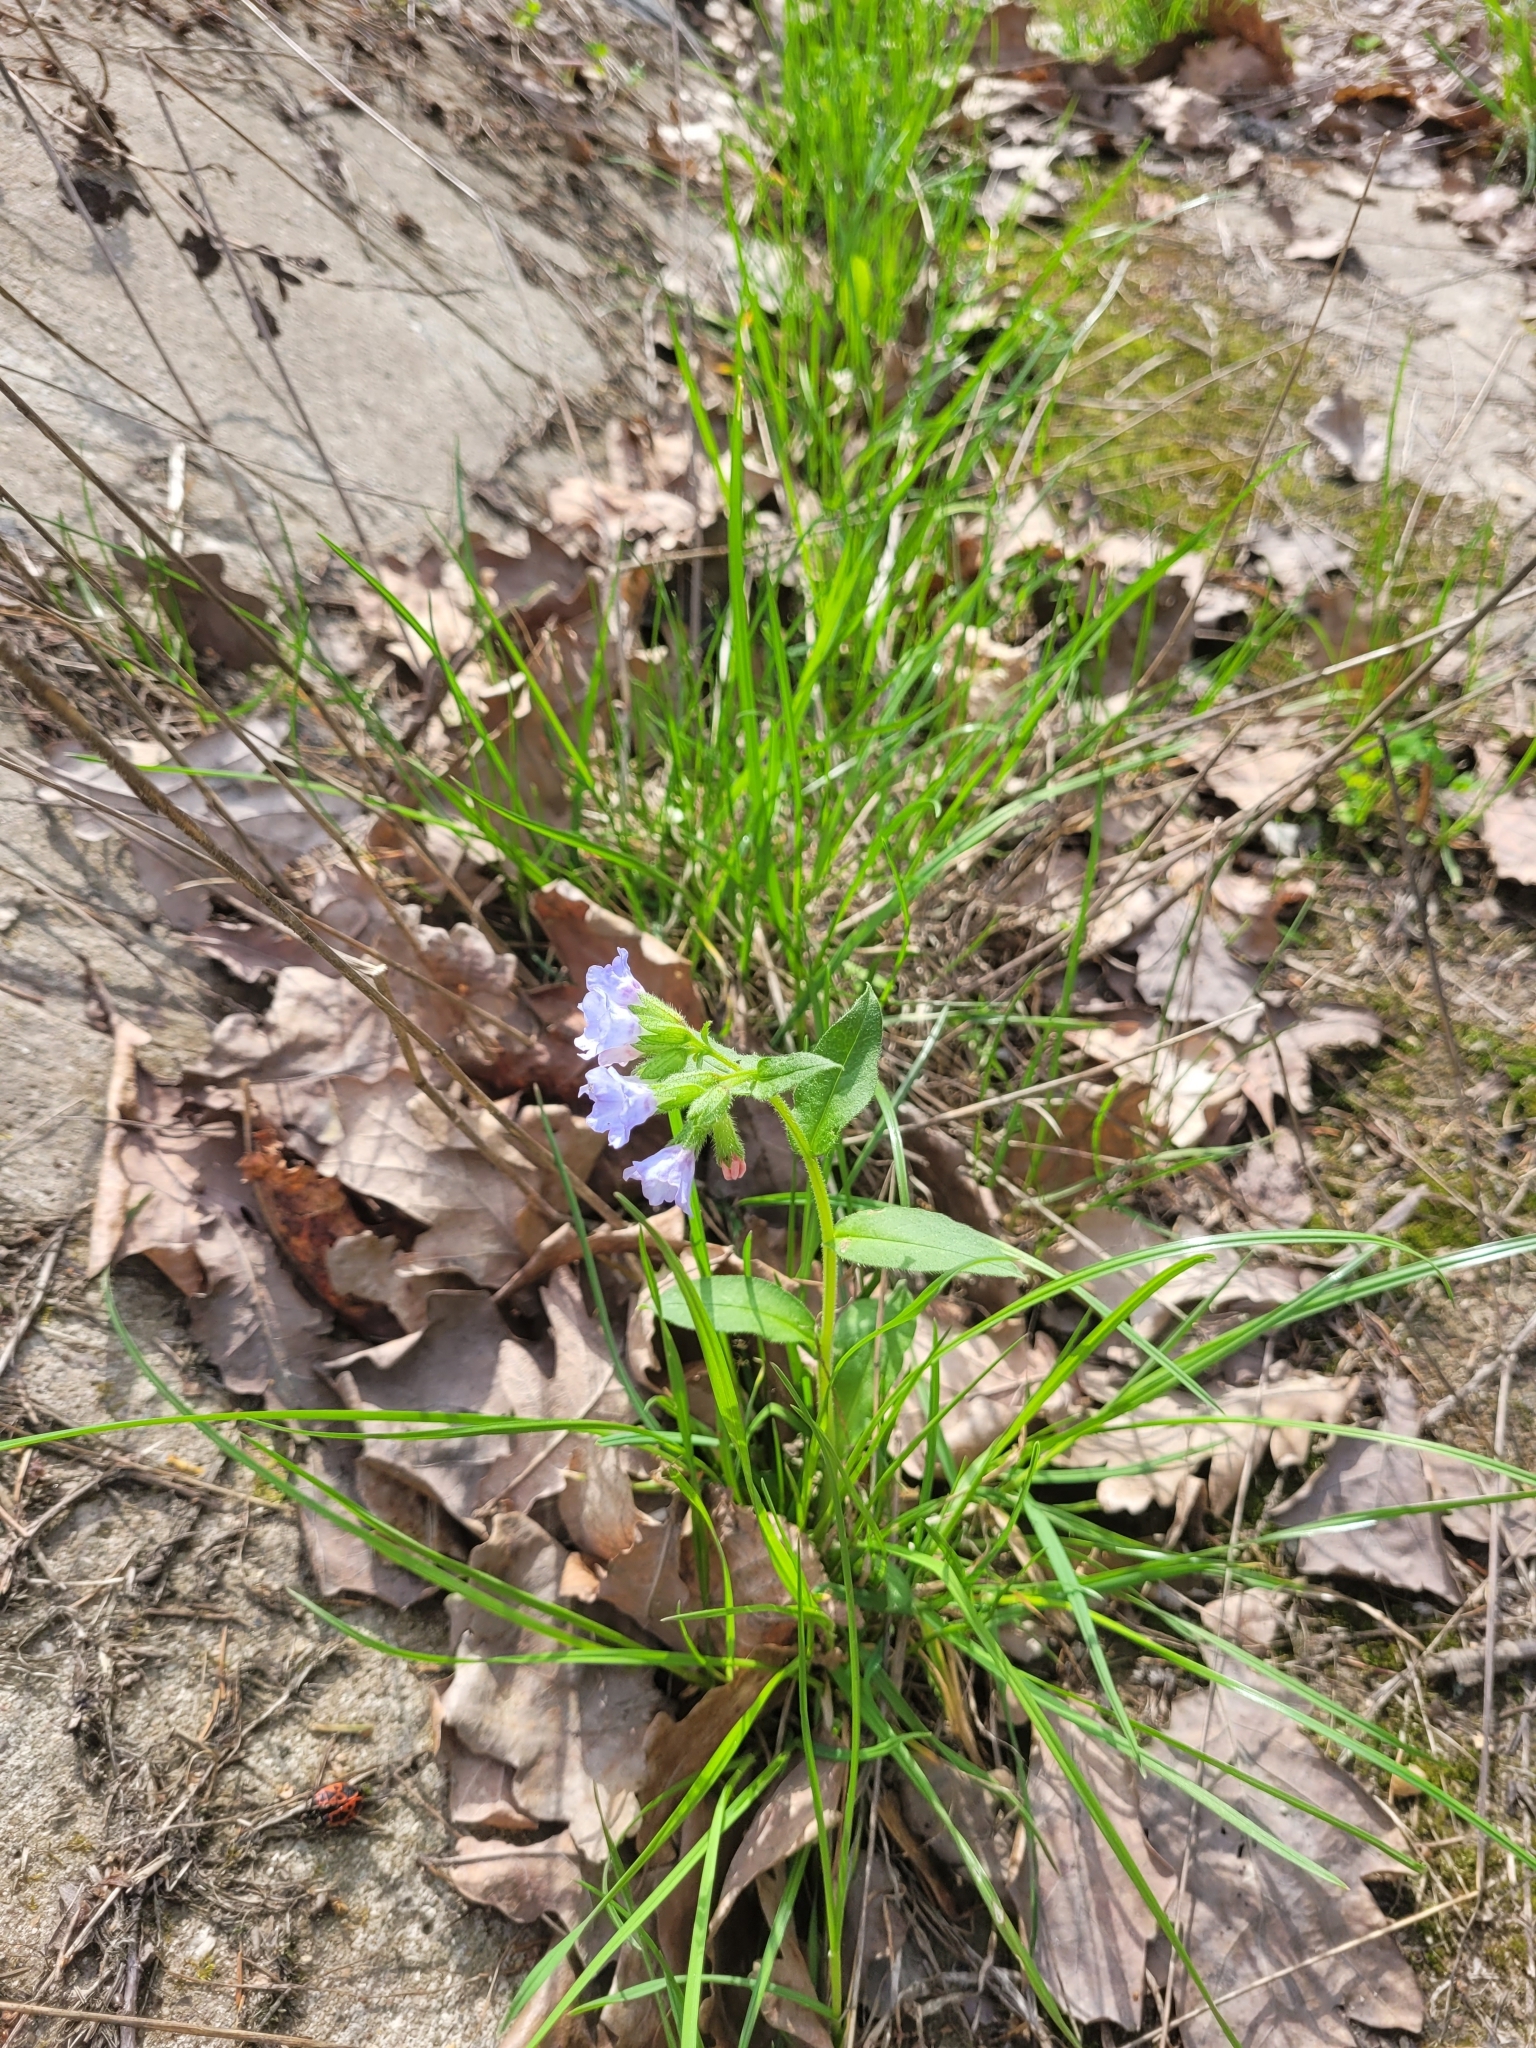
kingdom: Plantae
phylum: Tracheophyta
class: Magnoliopsida
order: Boraginales
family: Boraginaceae
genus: Pulmonaria
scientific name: Pulmonaria obscura
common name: Suffolk lungwort
